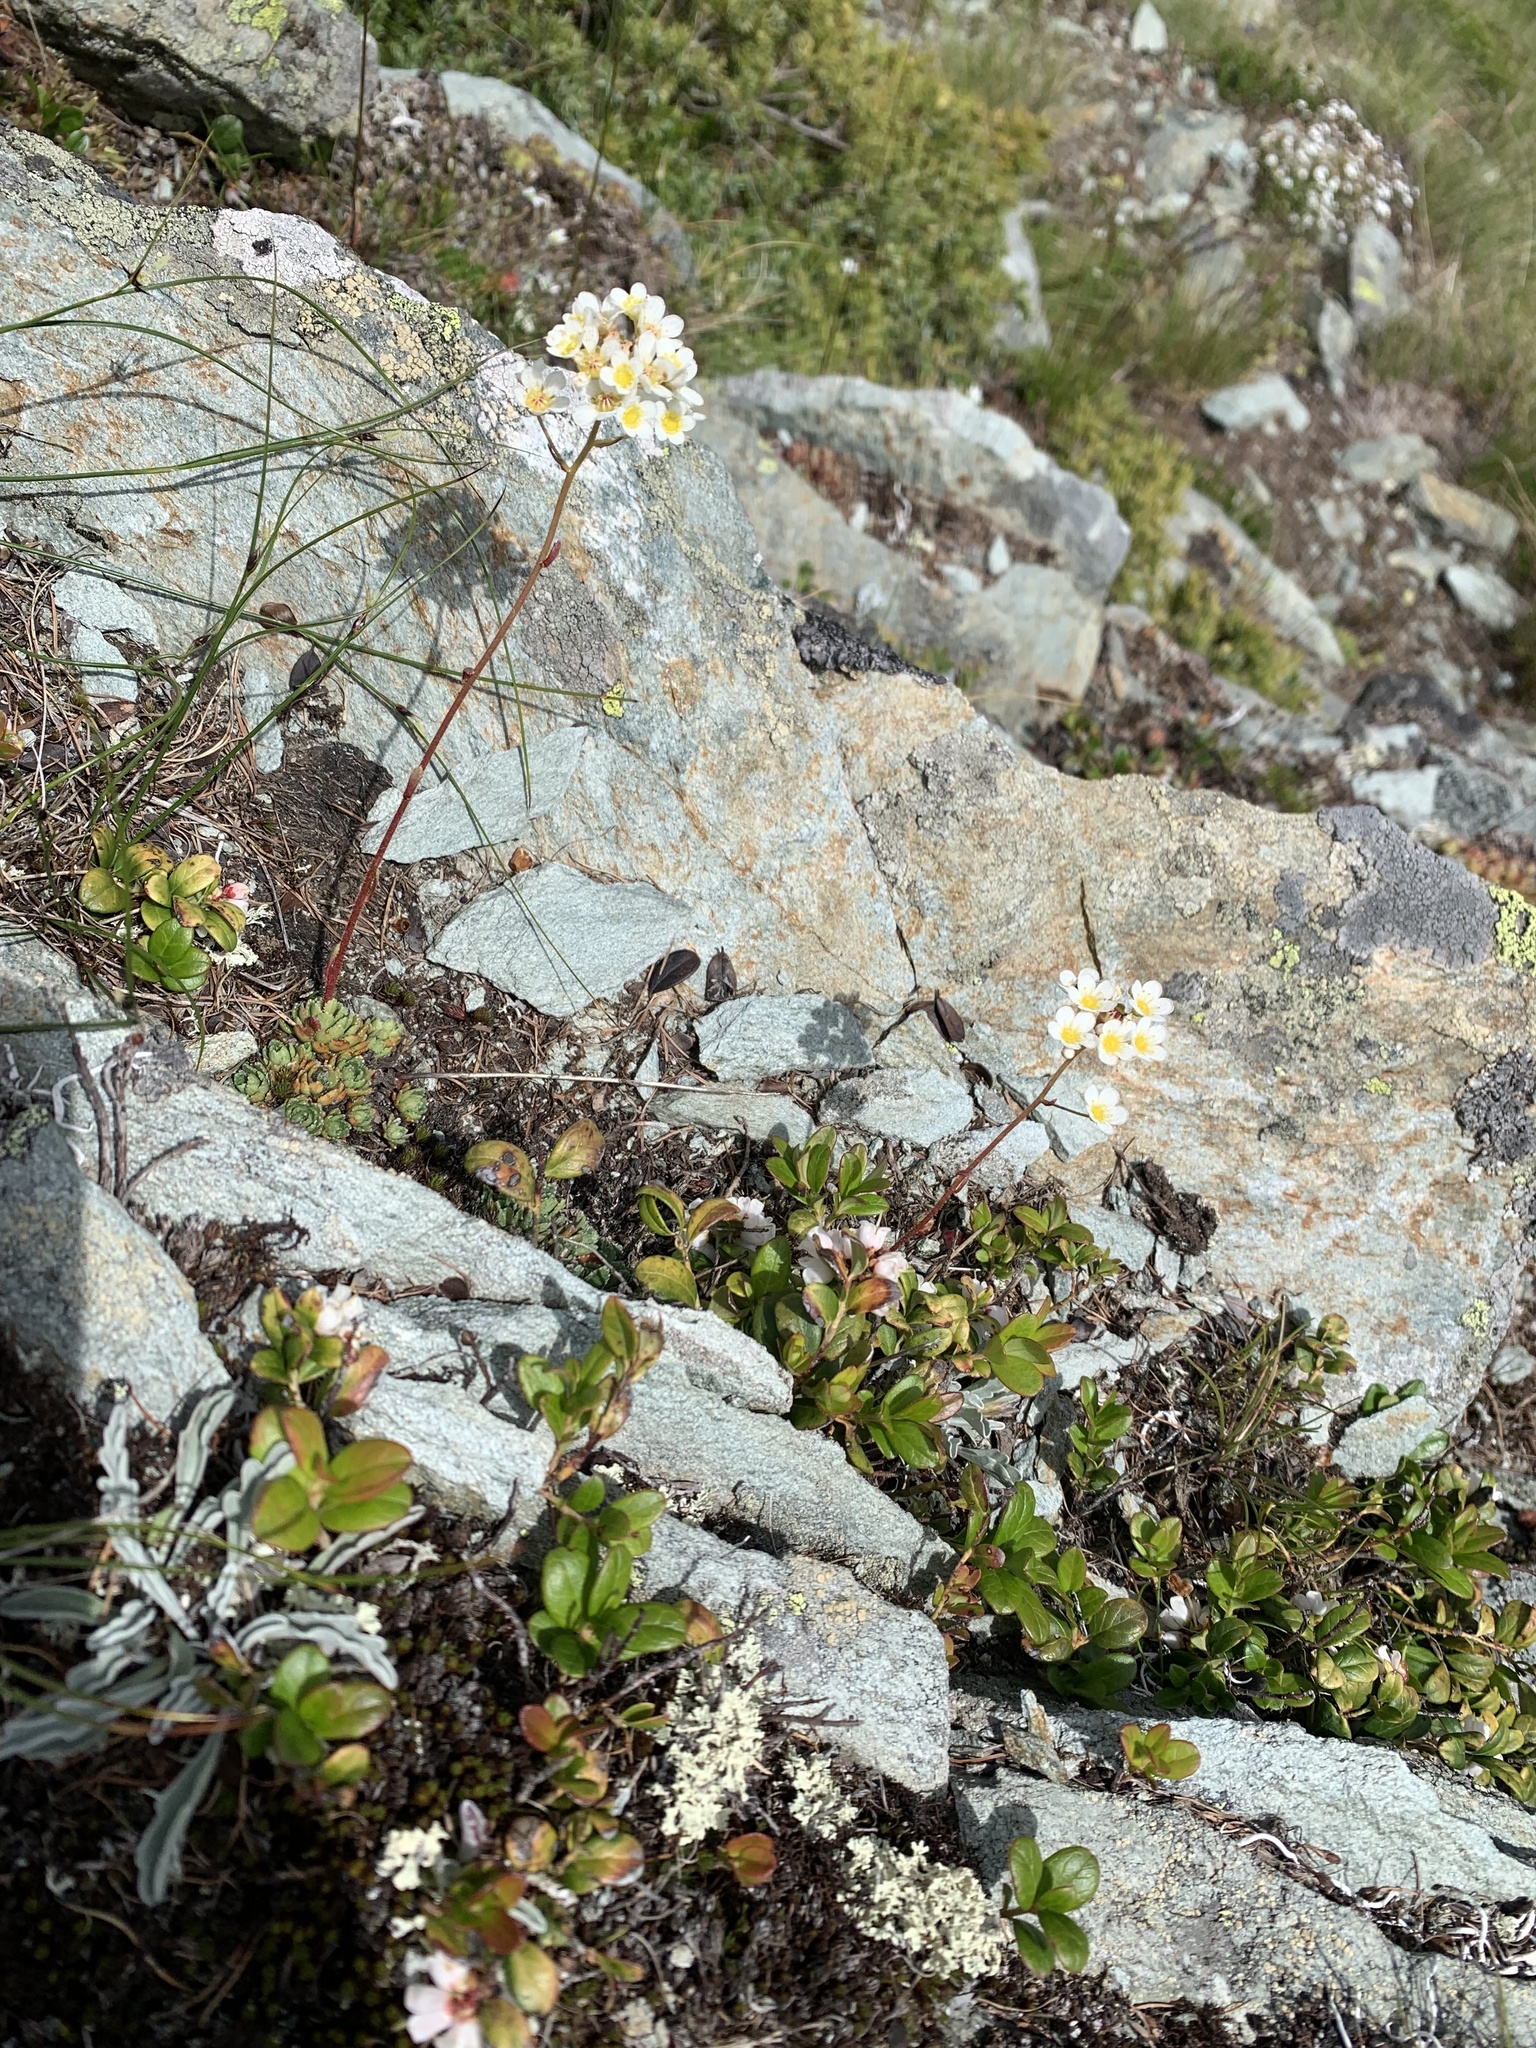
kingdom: Plantae
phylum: Tracheophyta
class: Magnoliopsida
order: Saxifragales
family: Saxifragaceae
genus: Saxifraga
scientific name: Saxifraga paniculata
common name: Livelong saxifrage
